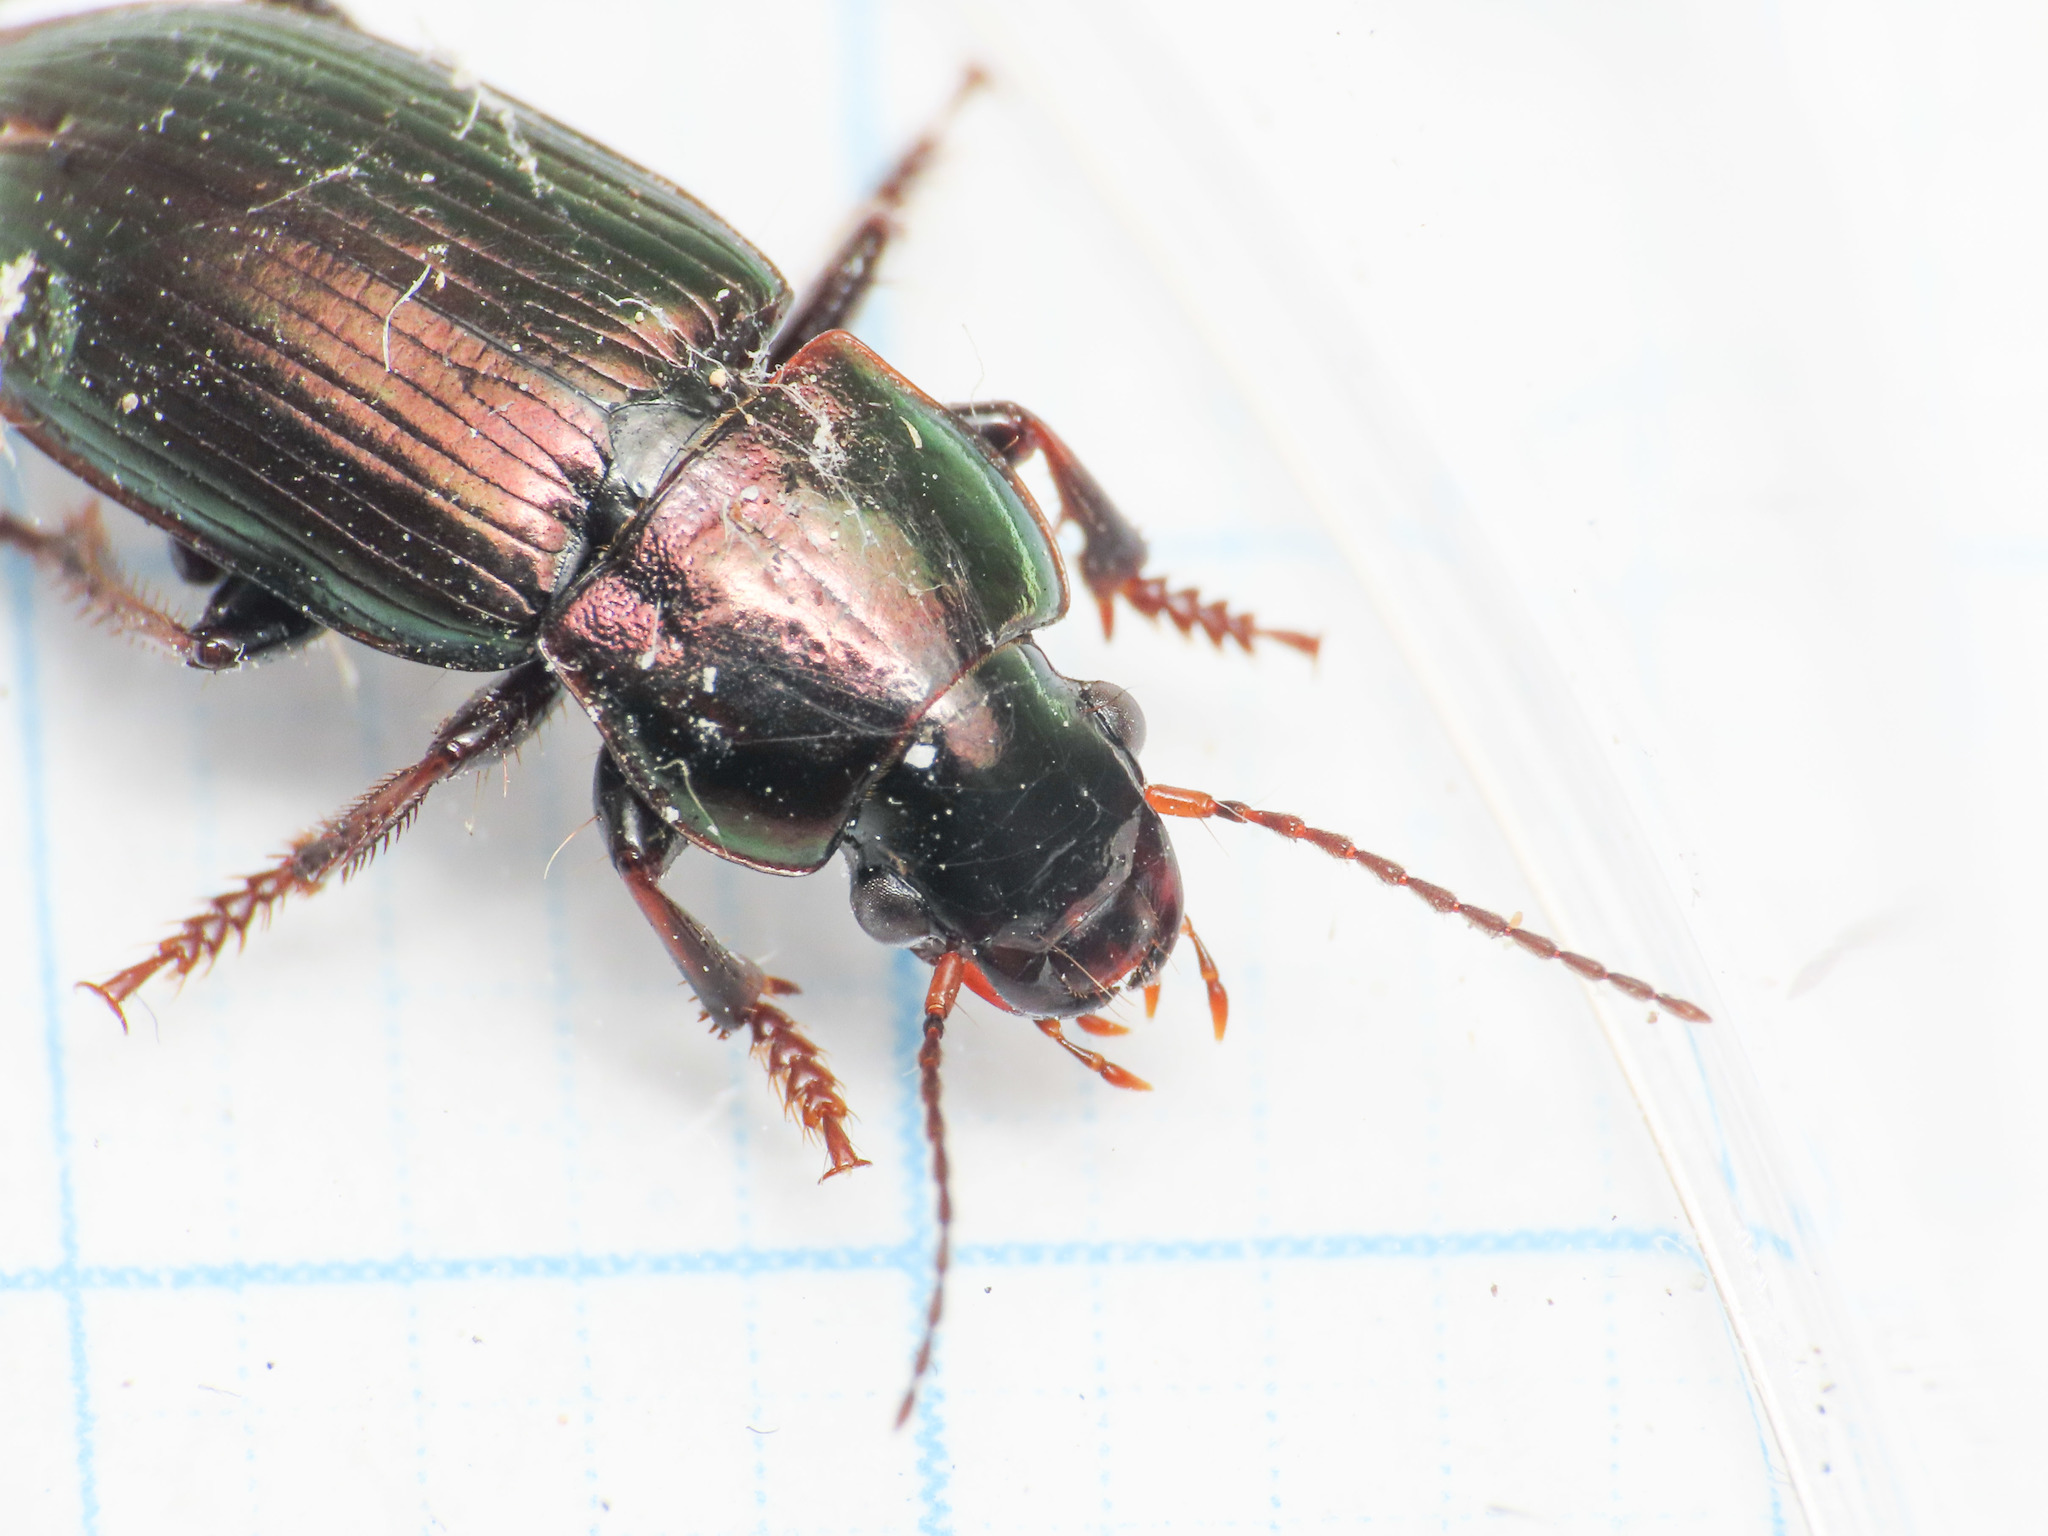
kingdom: Animalia
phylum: Arthropoda
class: Insecta
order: Coleoptera
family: Carabidae
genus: Harpalus
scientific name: Harpalus distinguendus
